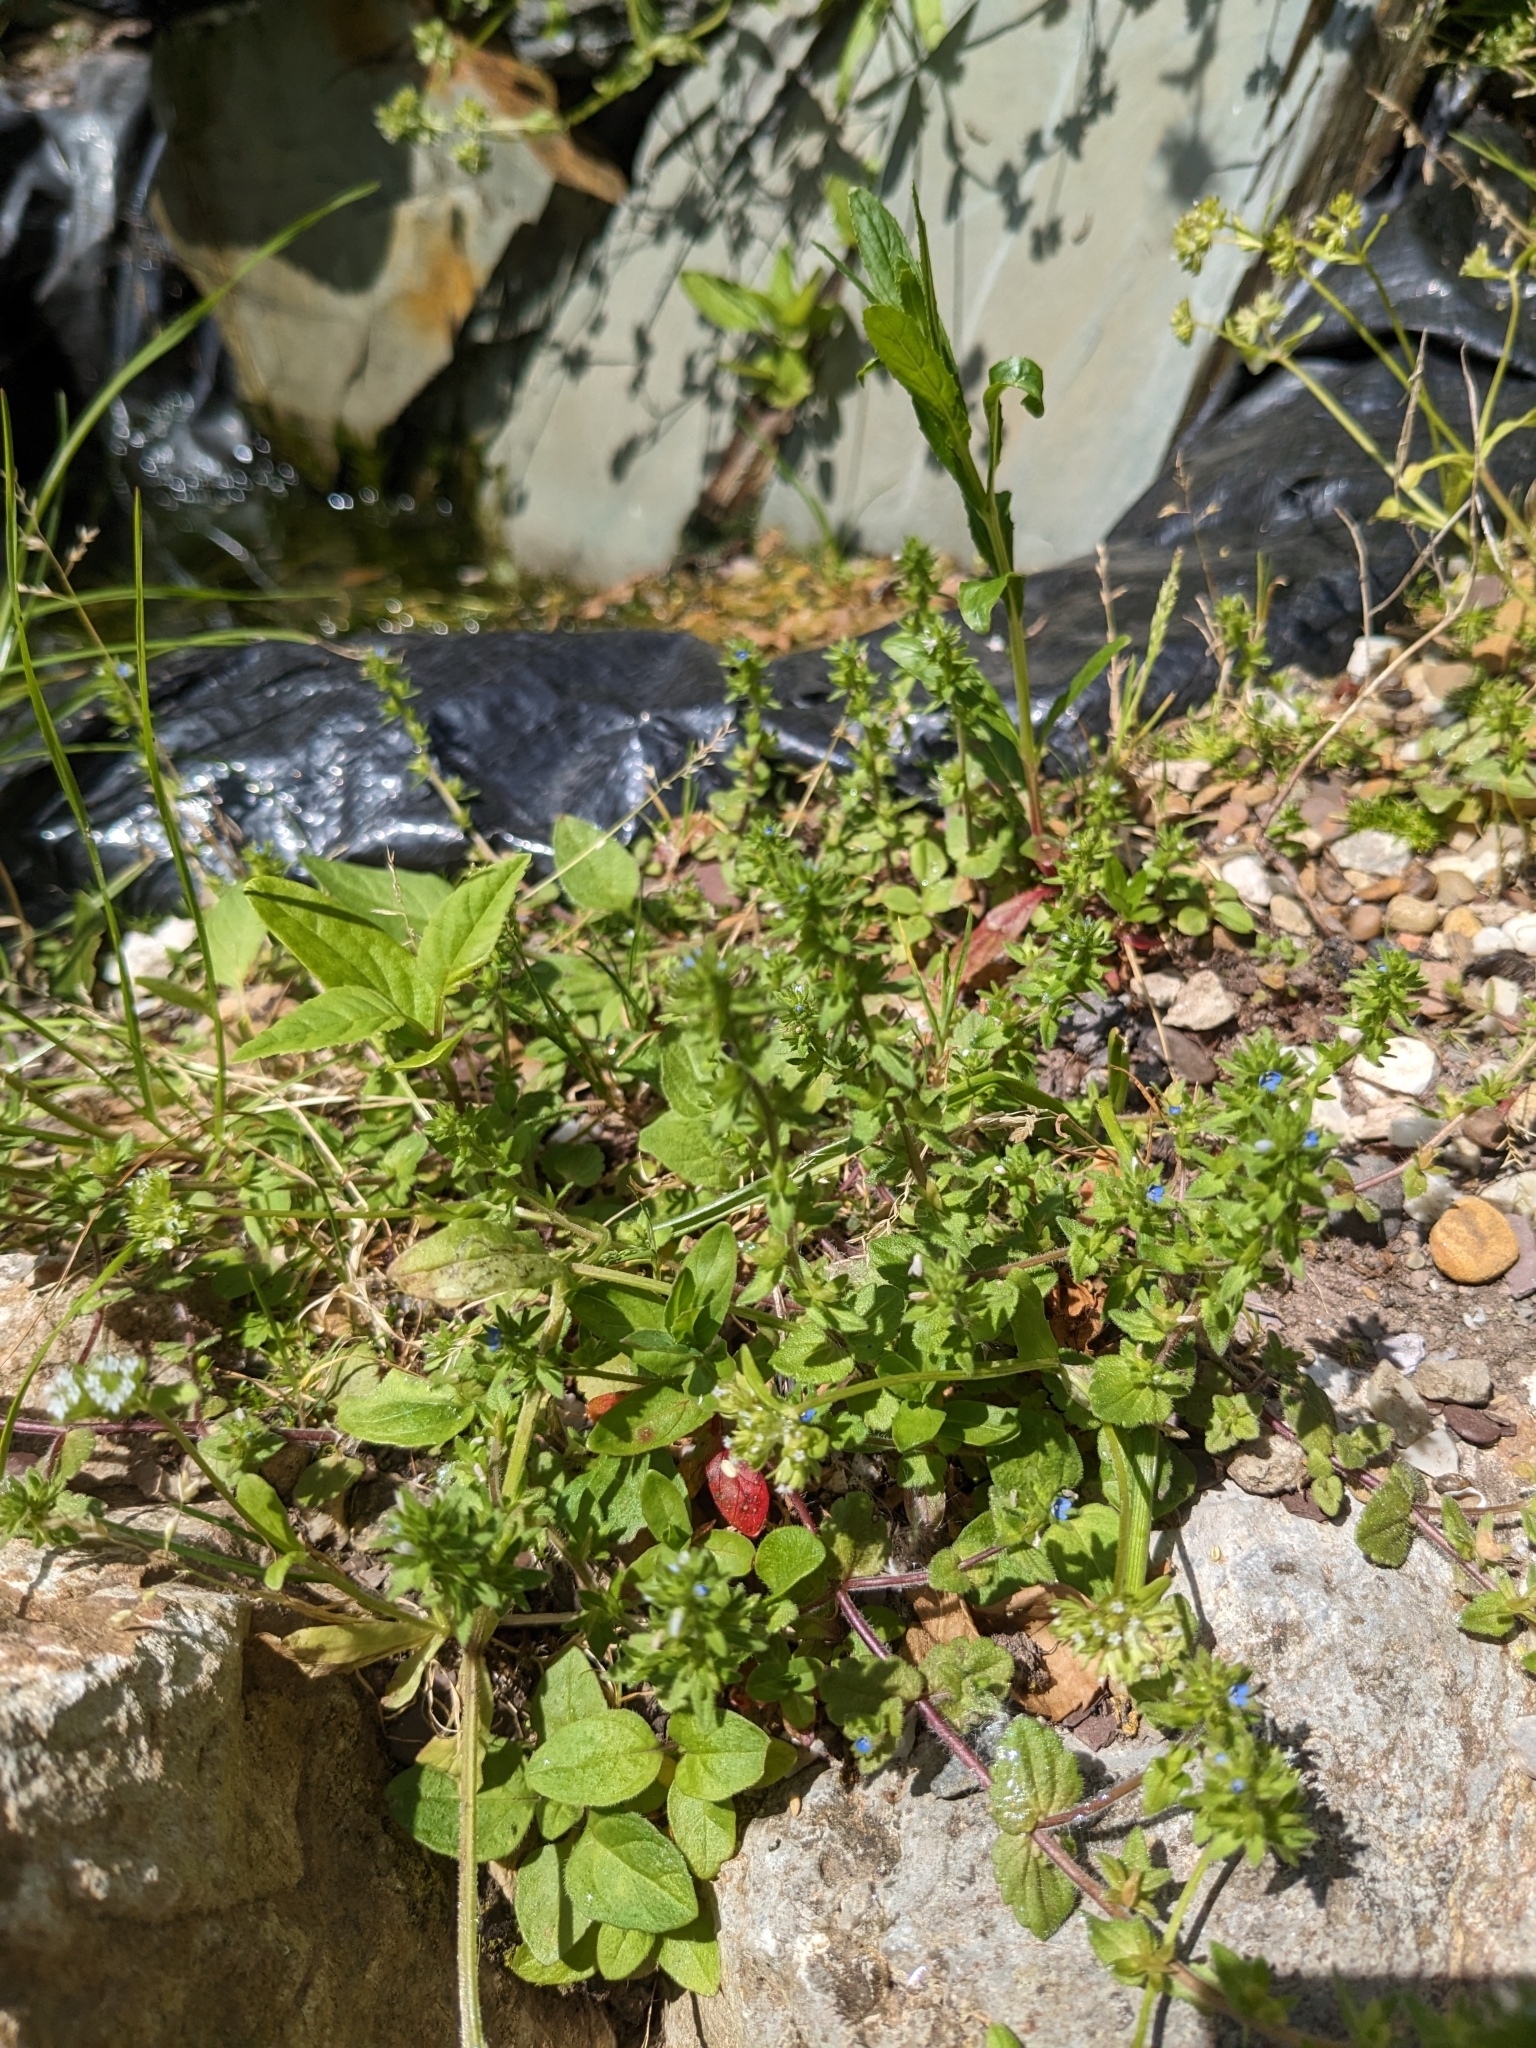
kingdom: Plantae
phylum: Tracheophyta
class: Magnoliopsida
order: Lamiales
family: Plantaginaceae
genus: Veronica
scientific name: Veronica arvensis
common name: Corn speedwell
